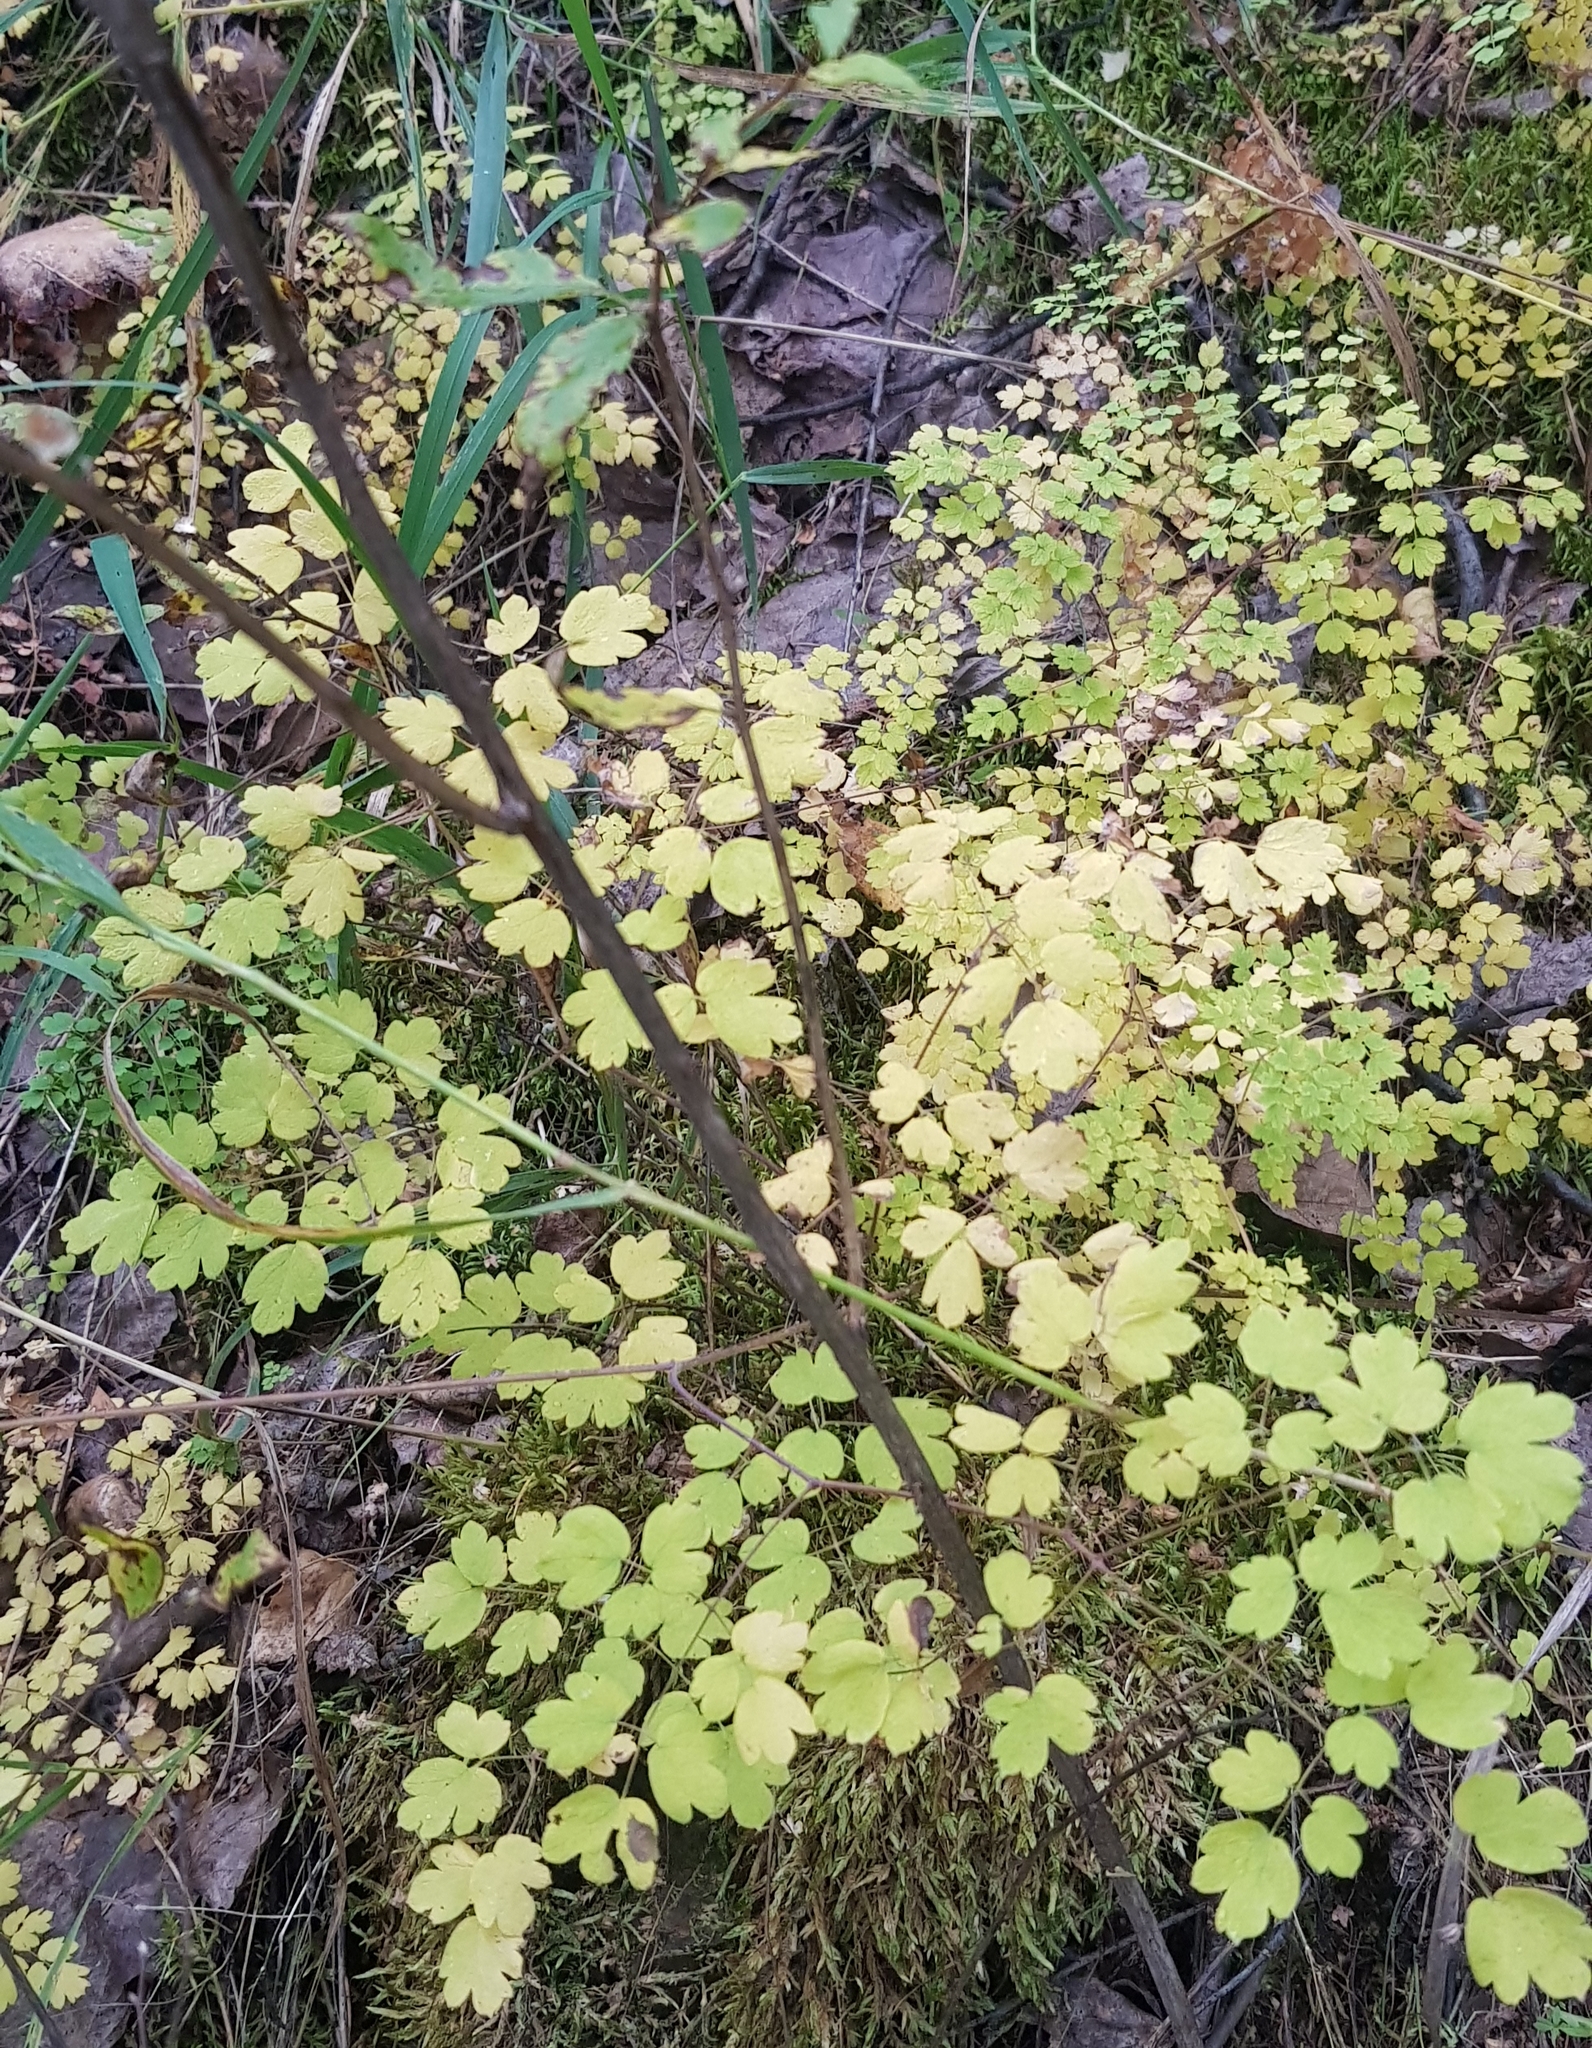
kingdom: Plantae
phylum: Tracheophyta
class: Magnoliopsida
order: Ranunculales
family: Ranunculaceae
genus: Thalictrum
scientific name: Thalictrum minus
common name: Lesser meadow-rue
